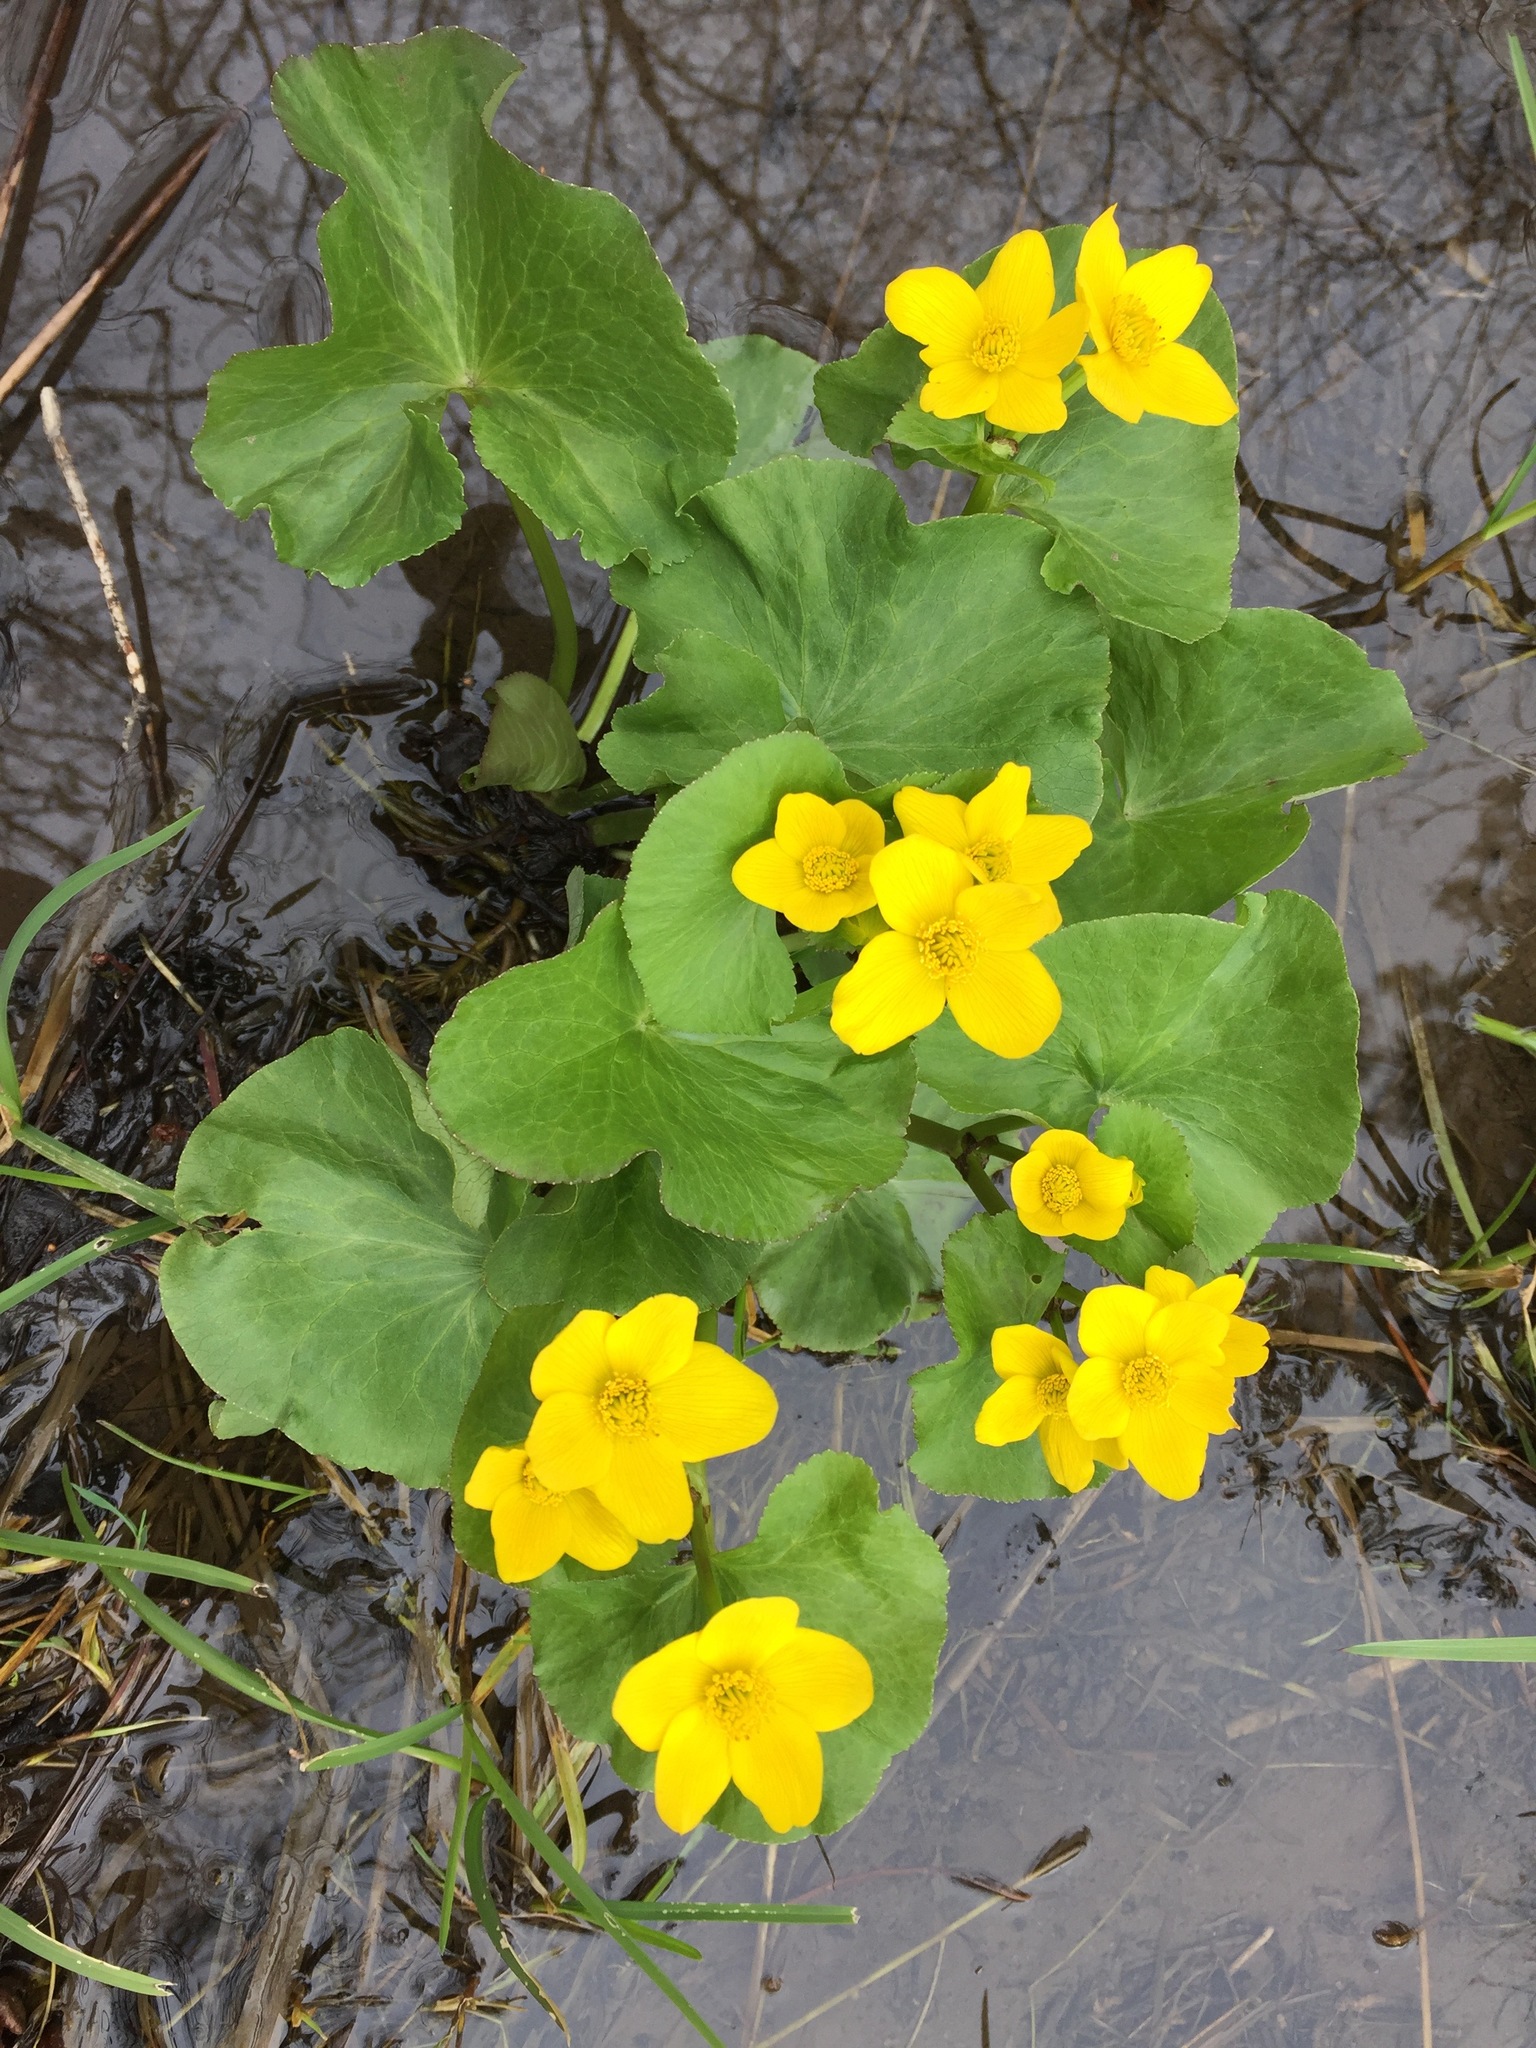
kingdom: Plantae
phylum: Tracheophyta
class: Magnoliopsida
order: Ranunculales
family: Ranunculaceae
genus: Caltha
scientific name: Caltha palustris
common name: Marsh marigold
